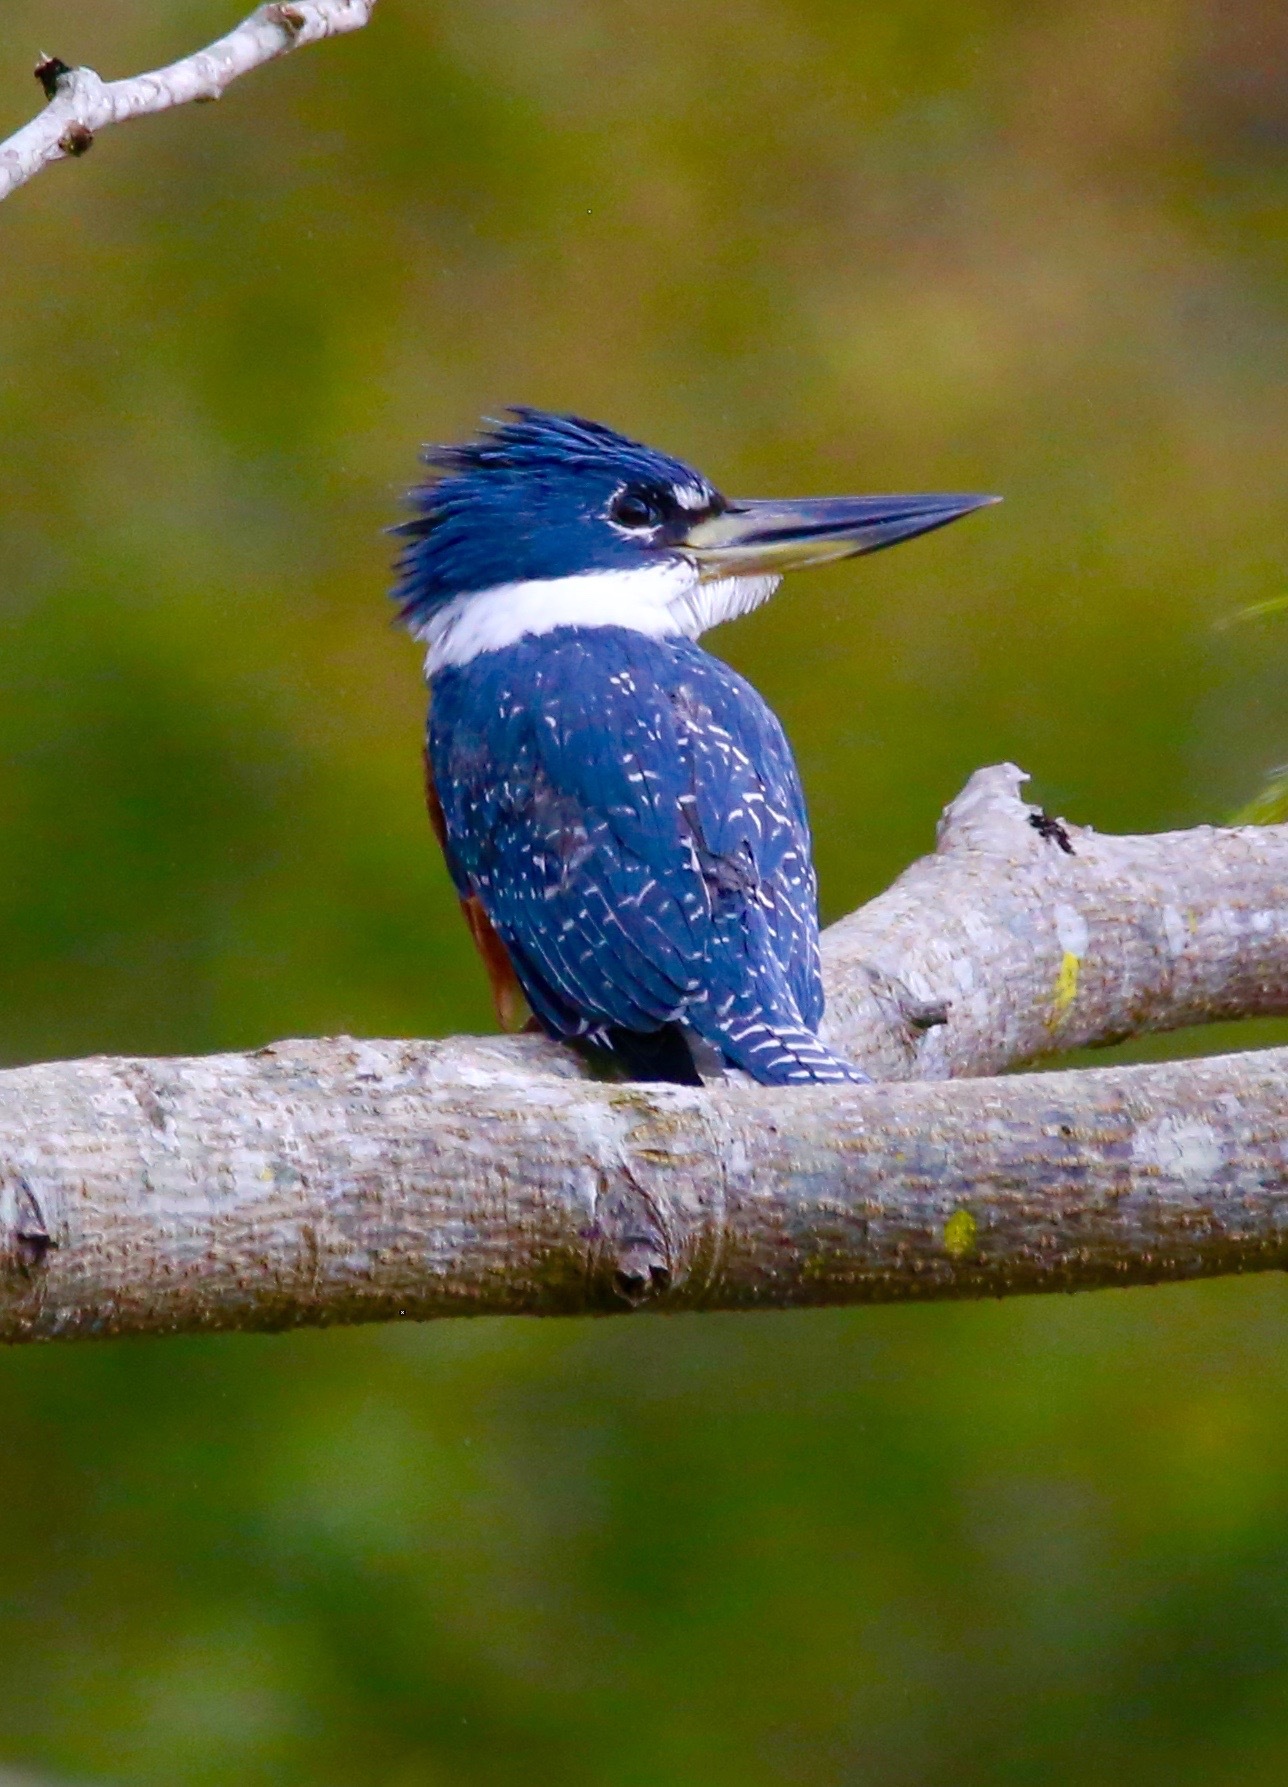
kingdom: Animalia
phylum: Chordata
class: Aves
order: Coraciiformes
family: Alcedinidae
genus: Megaceryle
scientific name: Megaceryle torquata
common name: Ringed kingfisher
